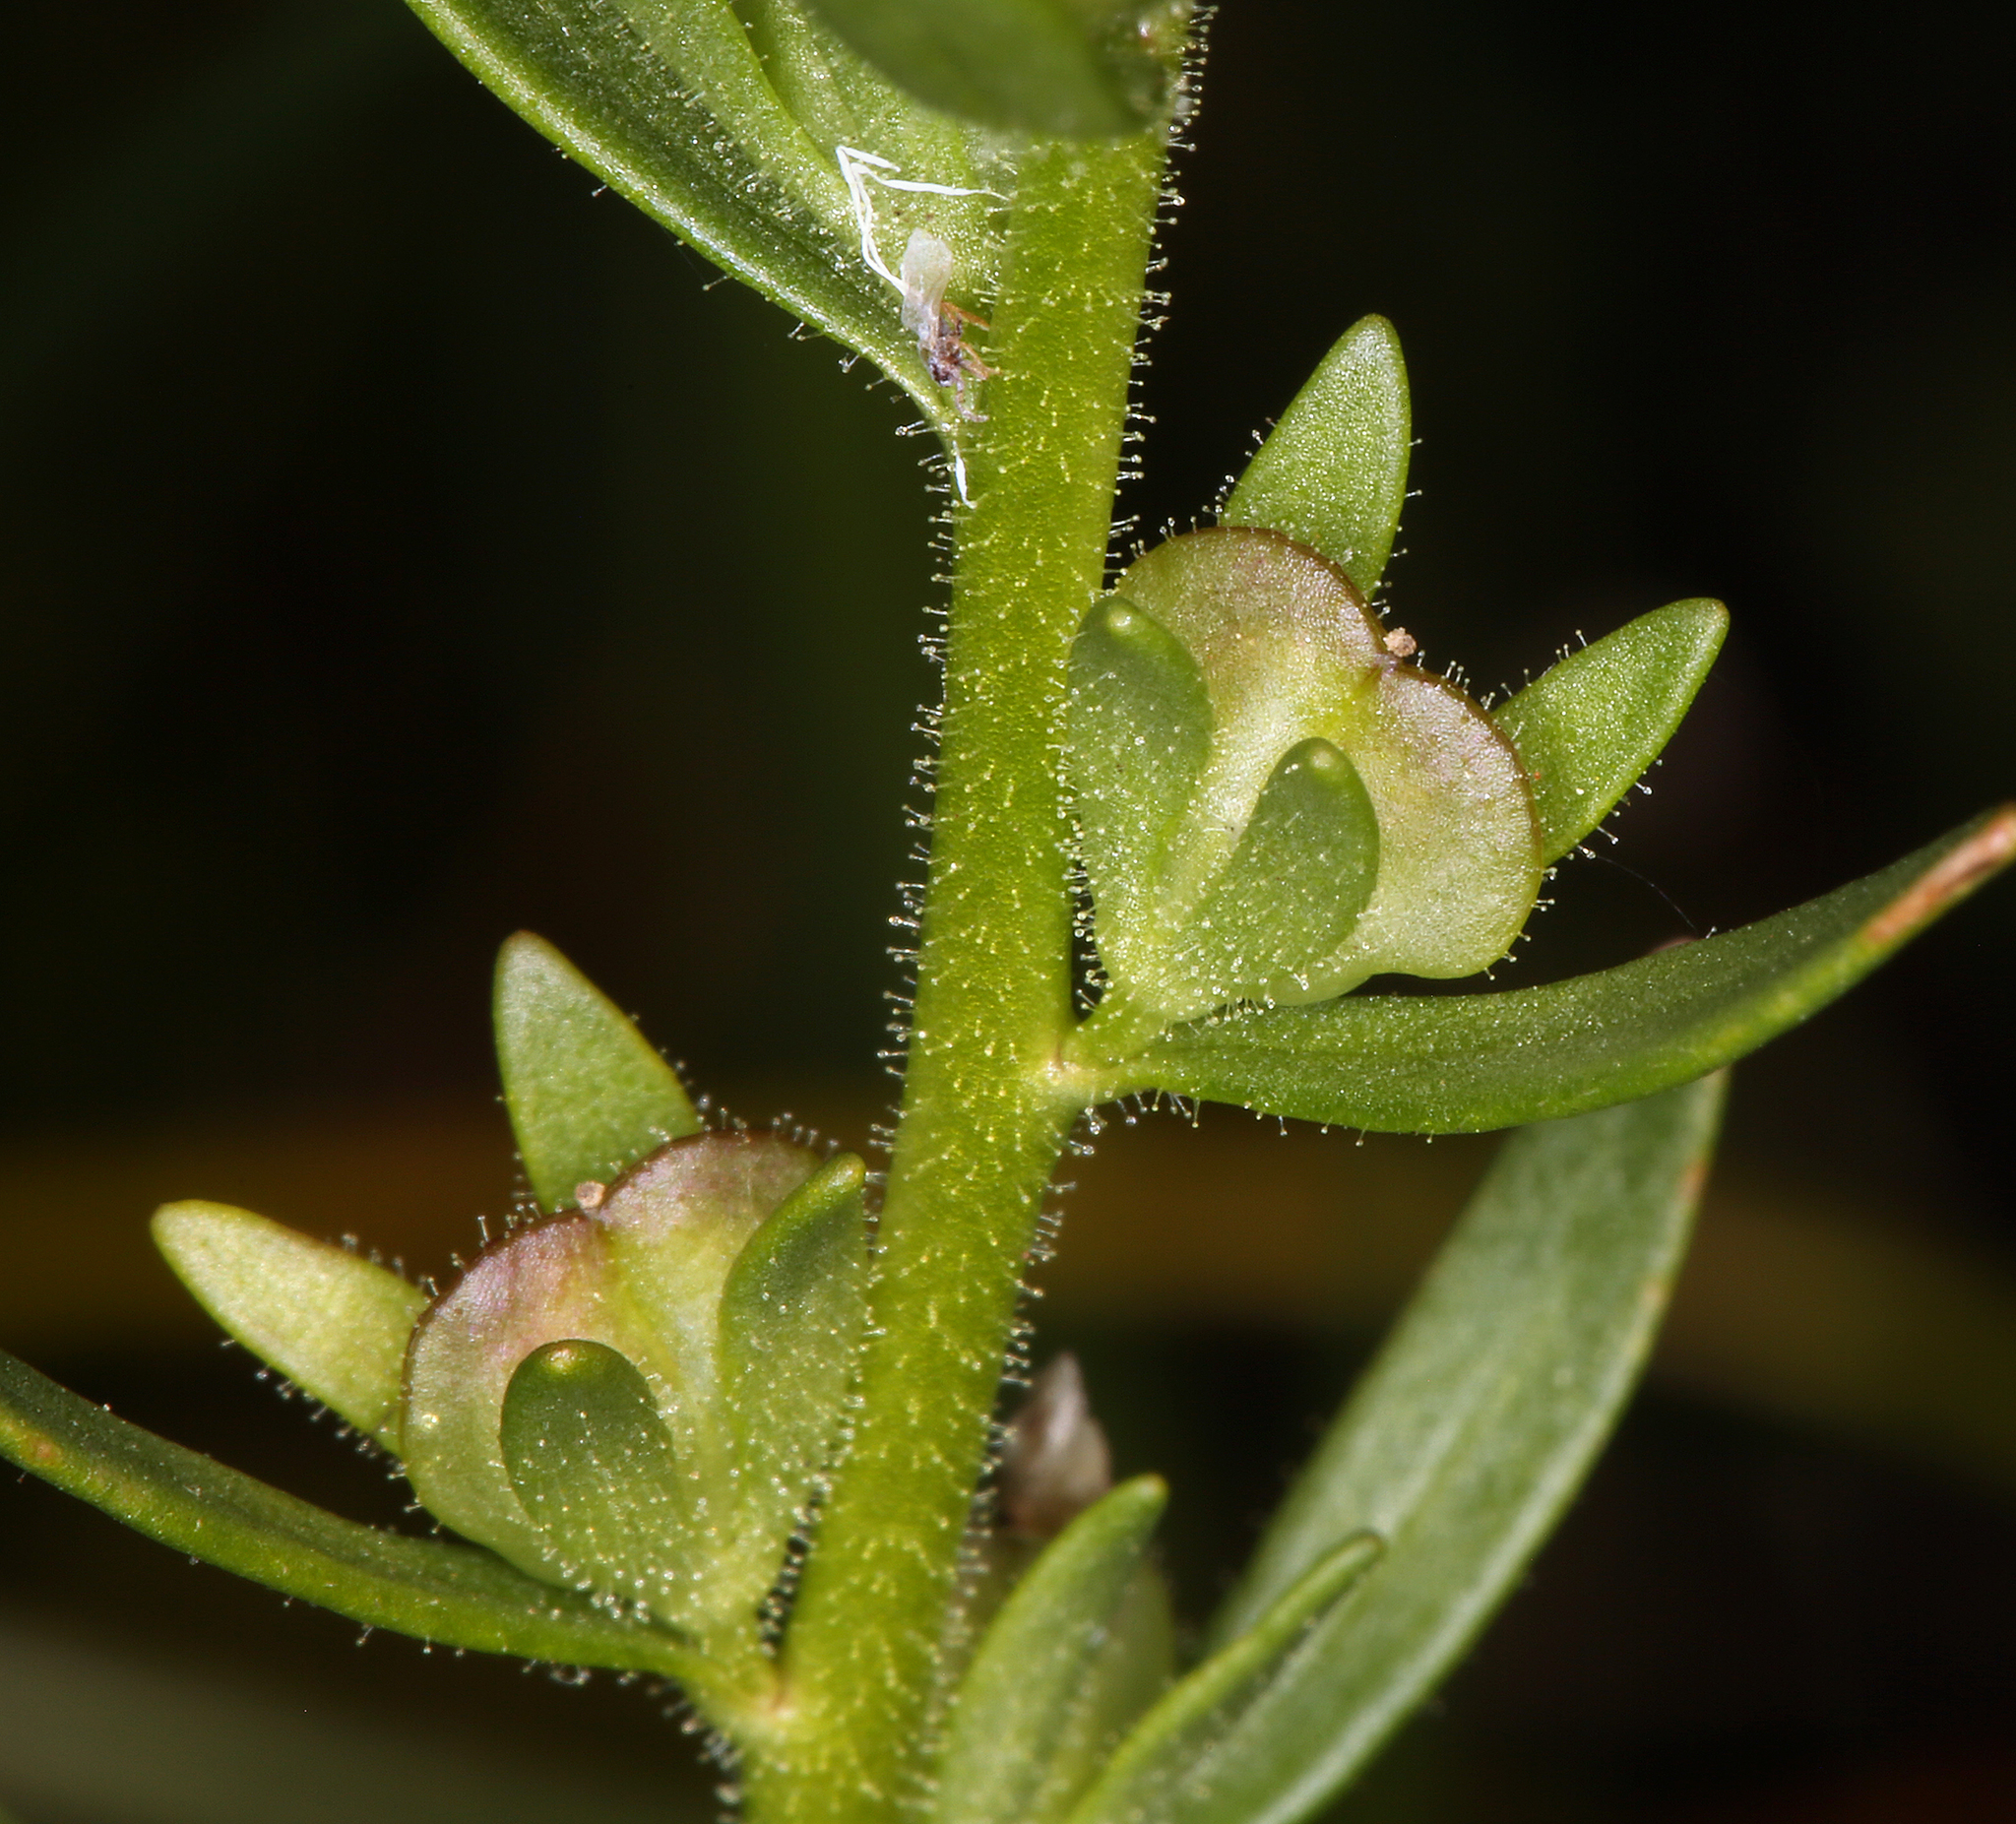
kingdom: Plantae
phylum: Tracheophyta
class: Magnoliopsida
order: Lamiales
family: Plantaginaceae
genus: Veronica
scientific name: Veronica peregrina
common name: Neckweed
